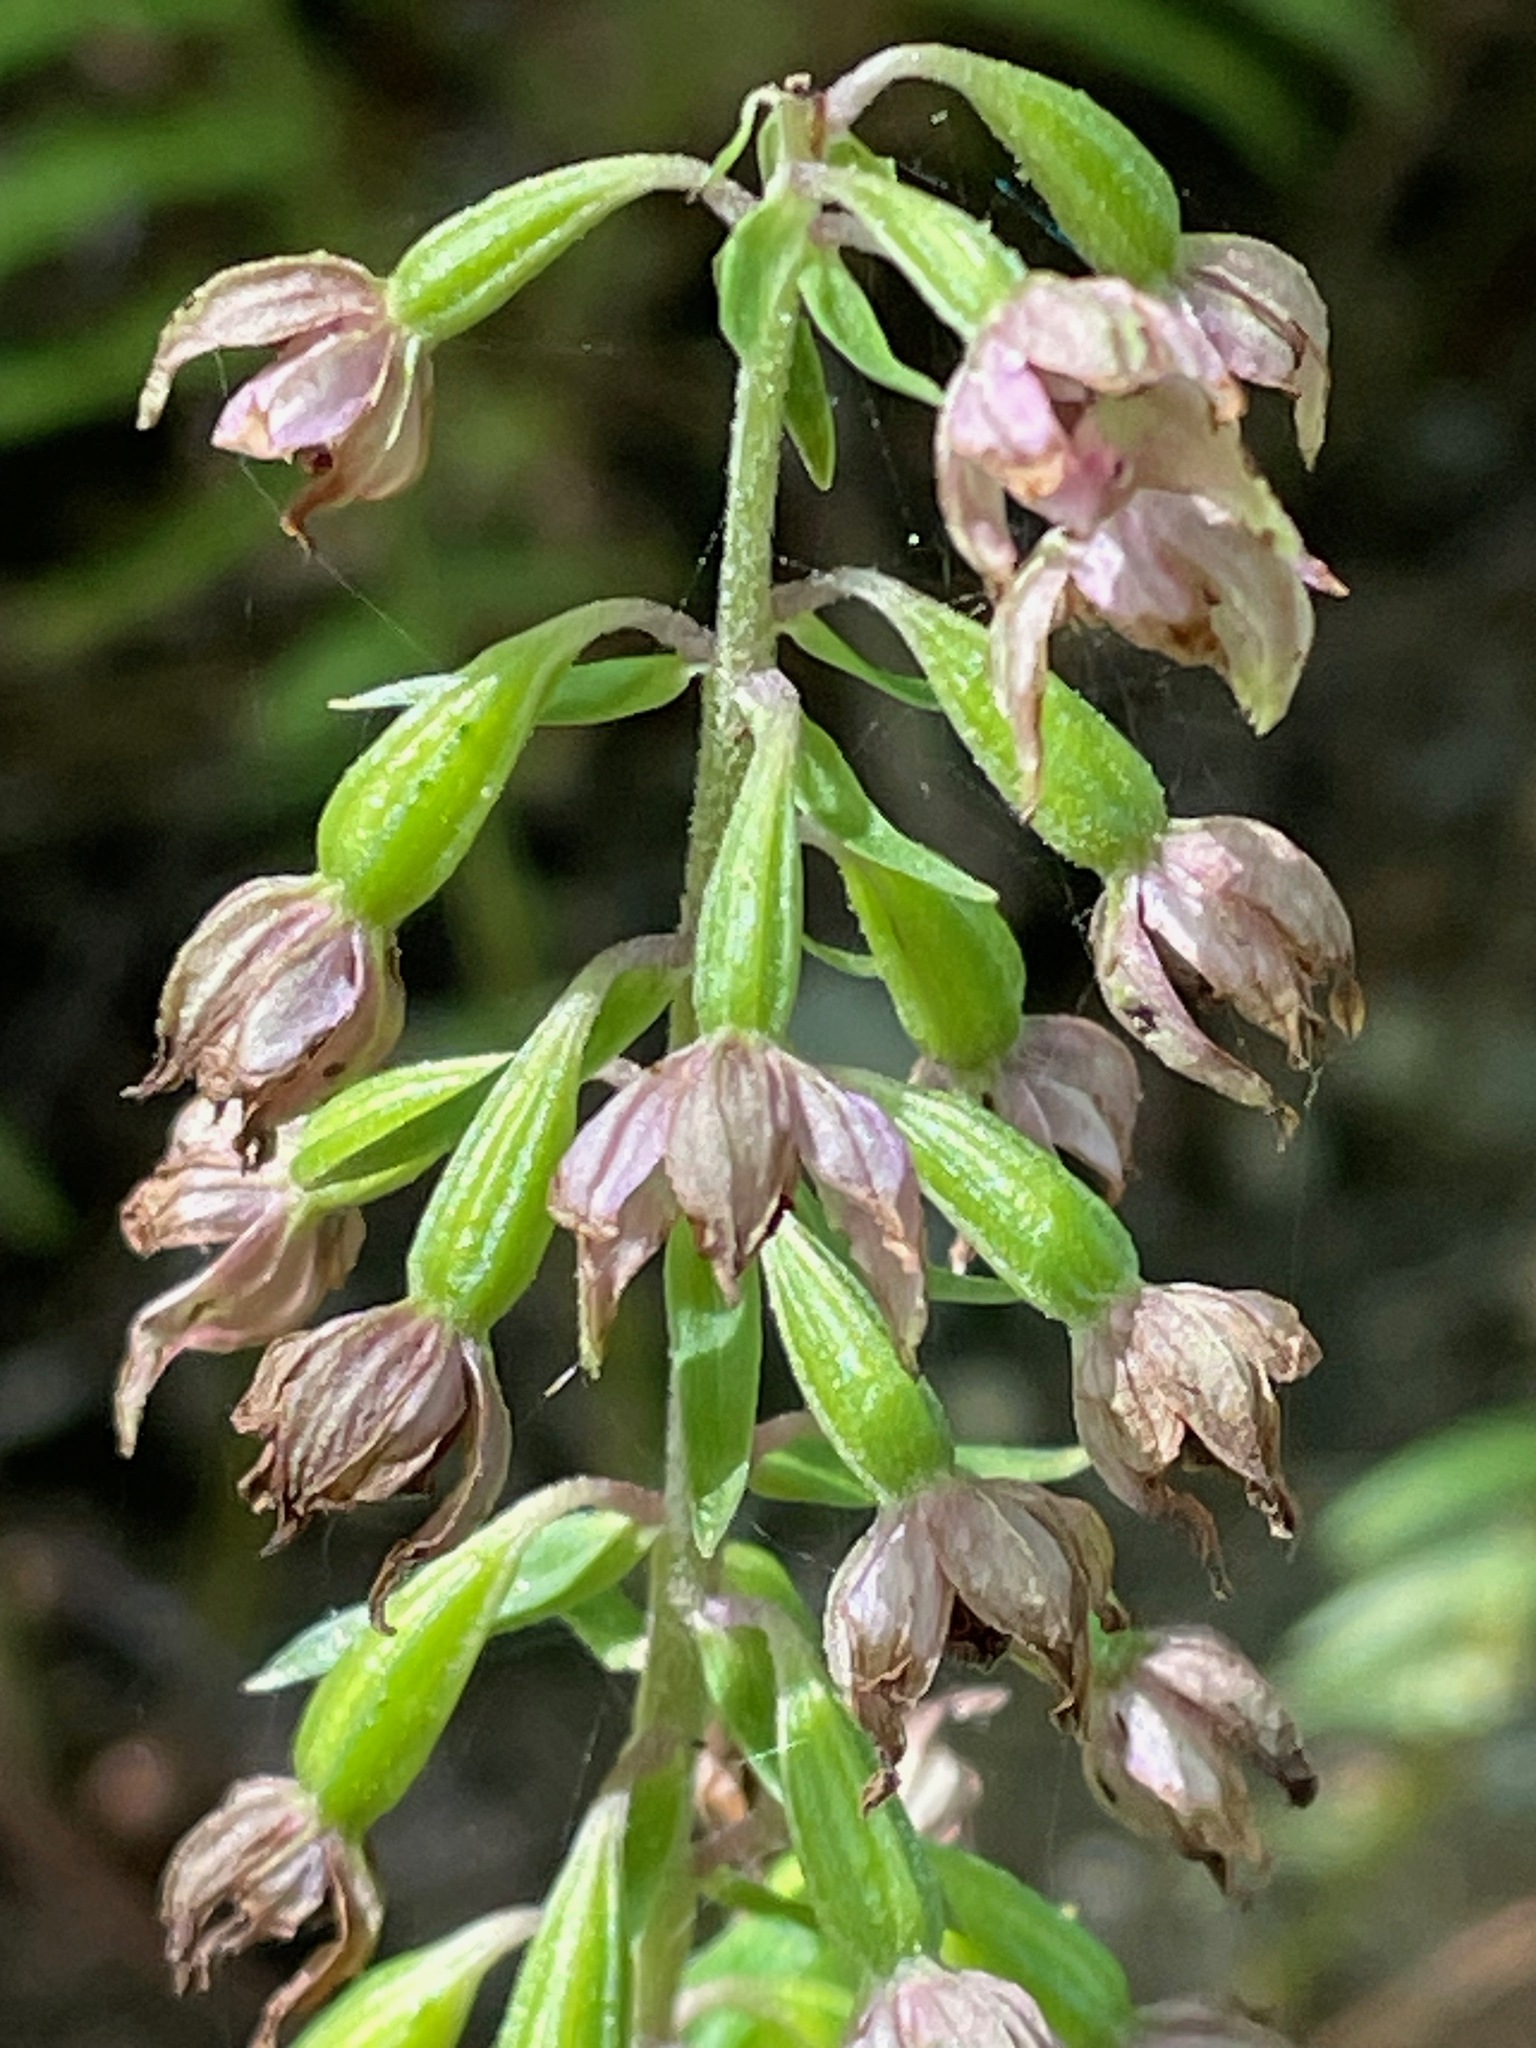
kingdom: Plantae
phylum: Tracheophyta
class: Liliopsida
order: Asparagales
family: Orchidaceae
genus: Epipactis
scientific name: Epipactis helleborine
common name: Broad-leaved helleborine
